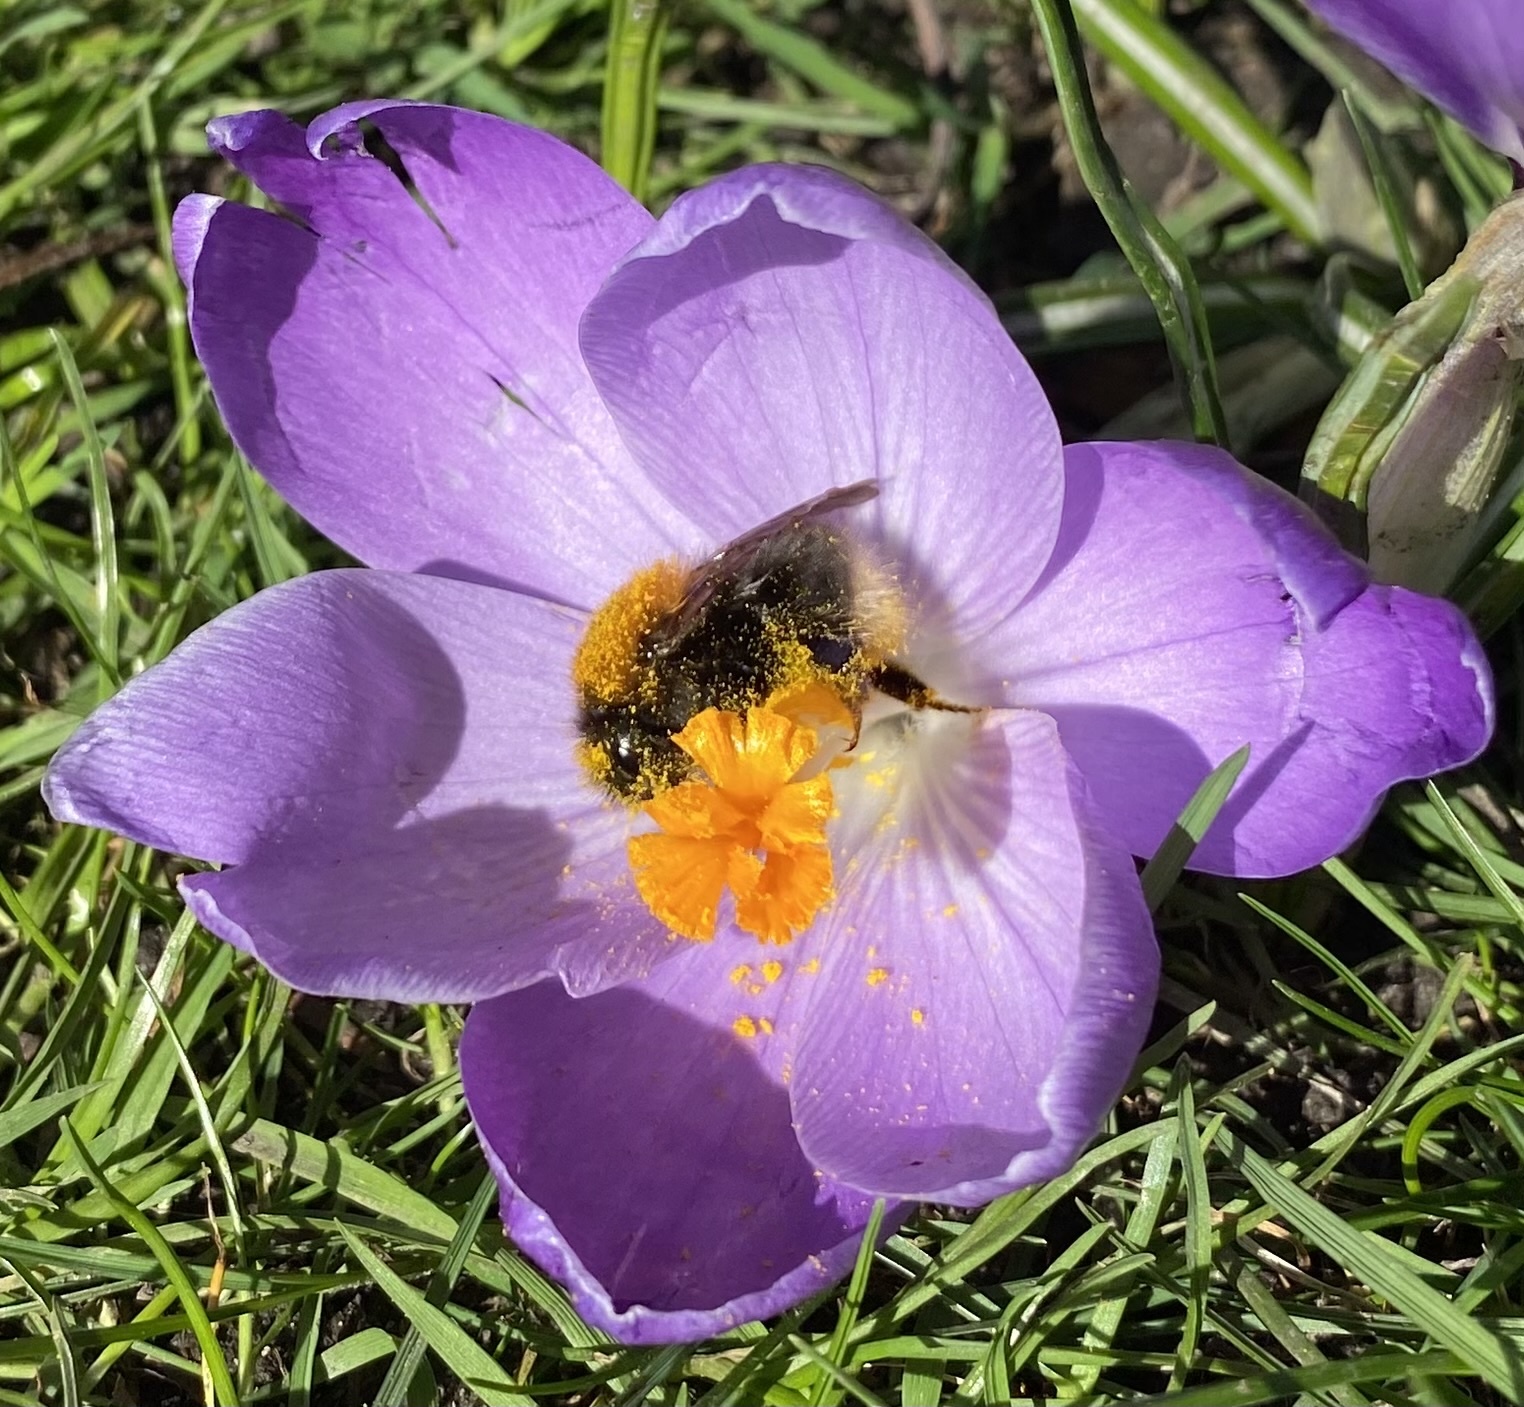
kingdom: Animalia
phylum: Arthropoda
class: Insecta
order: Hymenoptera
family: Apidae
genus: Bombus
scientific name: Bombus hypnorum
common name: New garden bumblebee
